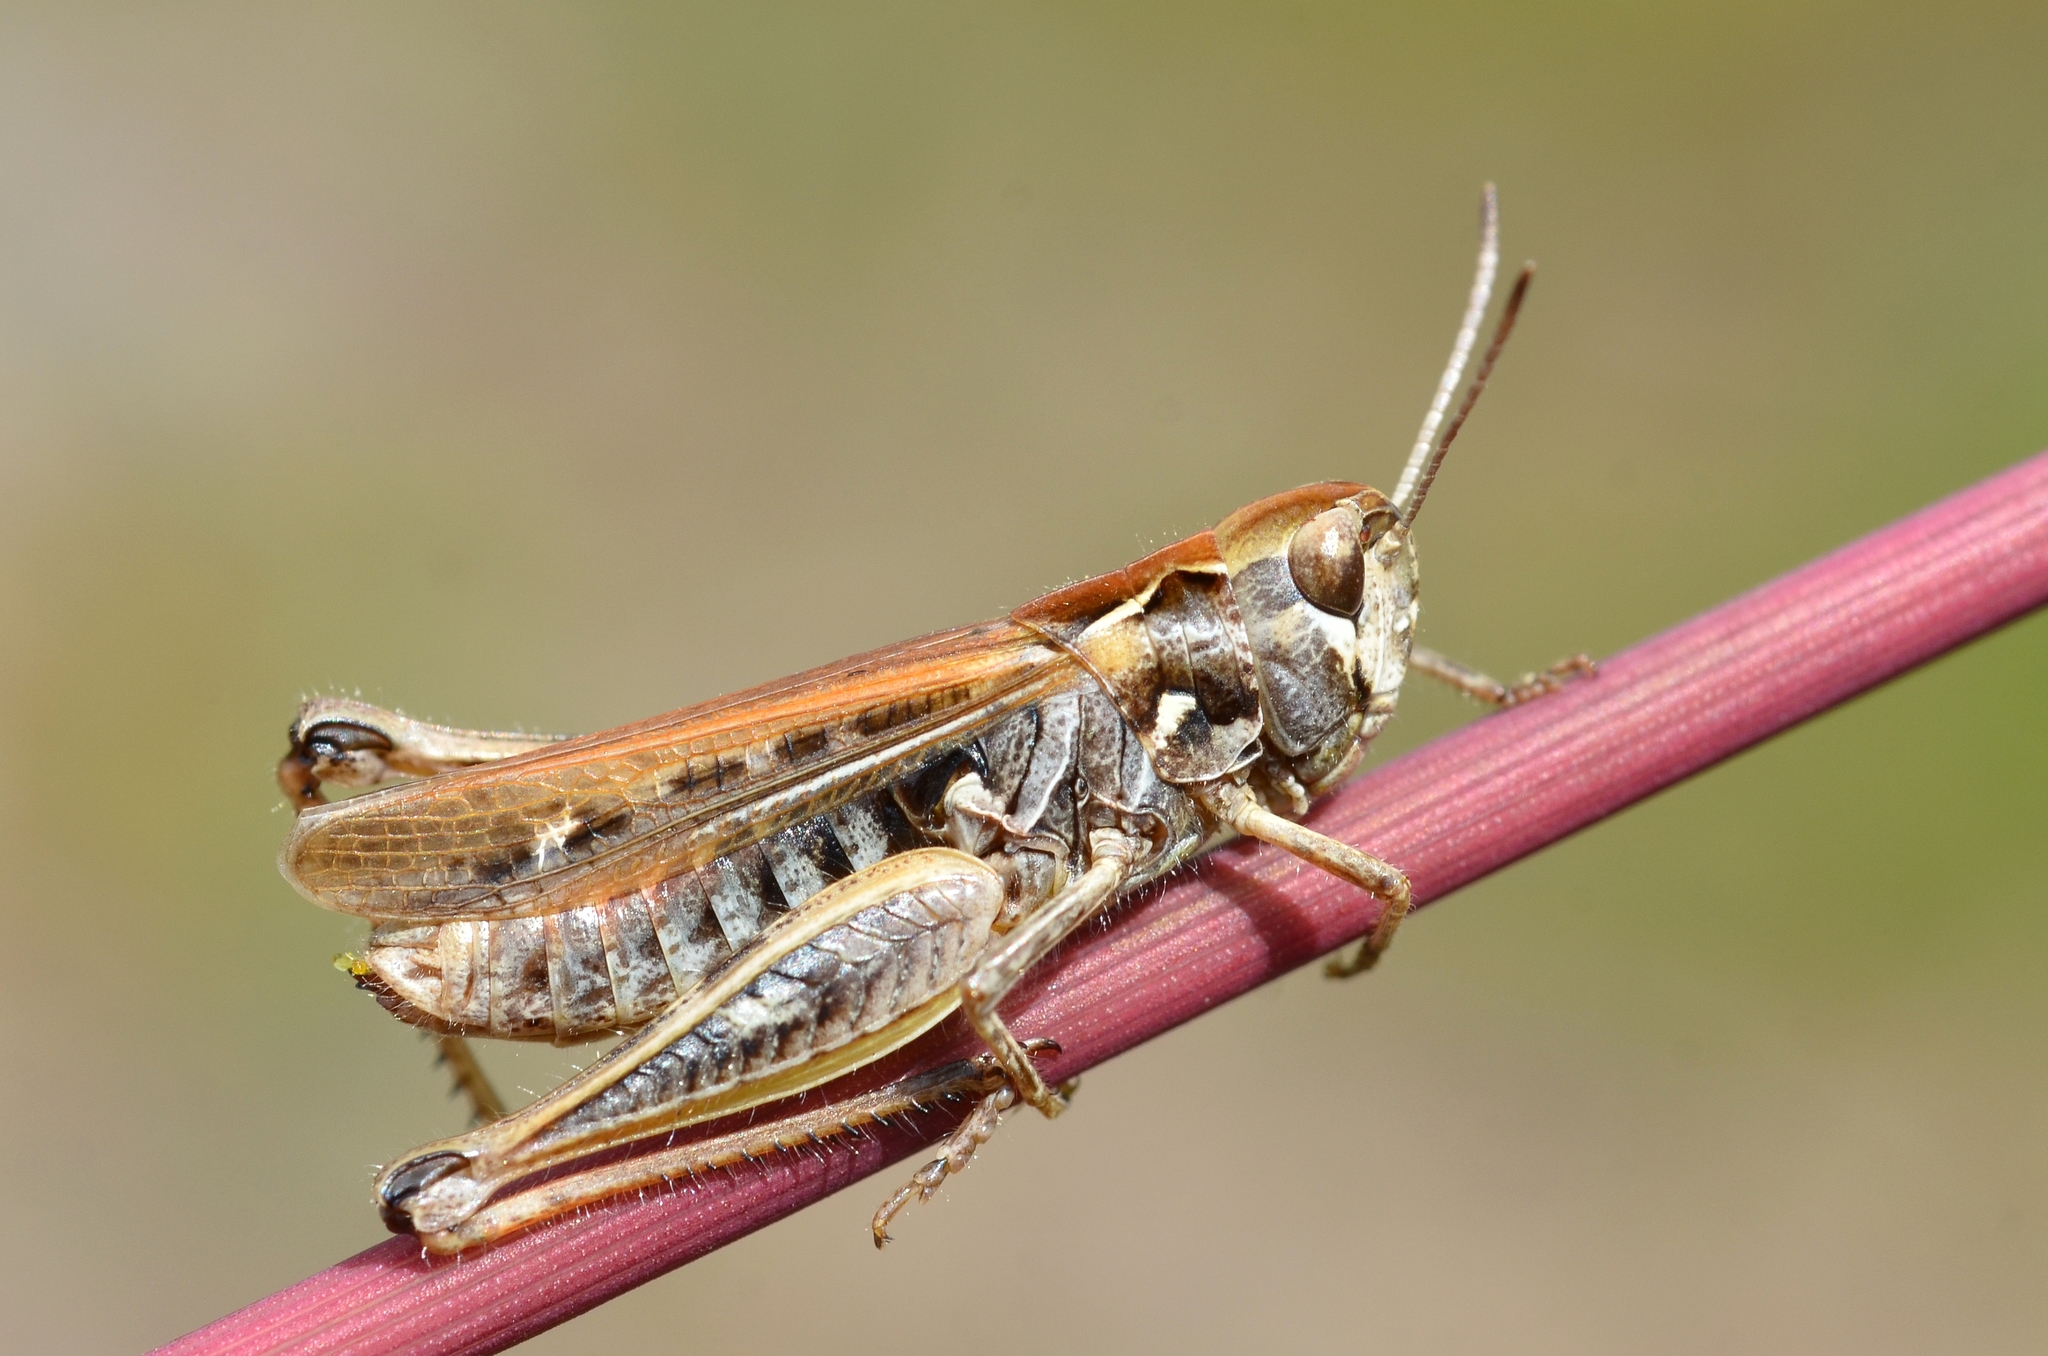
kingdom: Animalia
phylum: Arthropoda
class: Insecta
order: Orthoptera
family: Acrididae
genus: Myrmeleotettix
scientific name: Myrmeleotettix maculatus
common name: Mottled grasshopper
